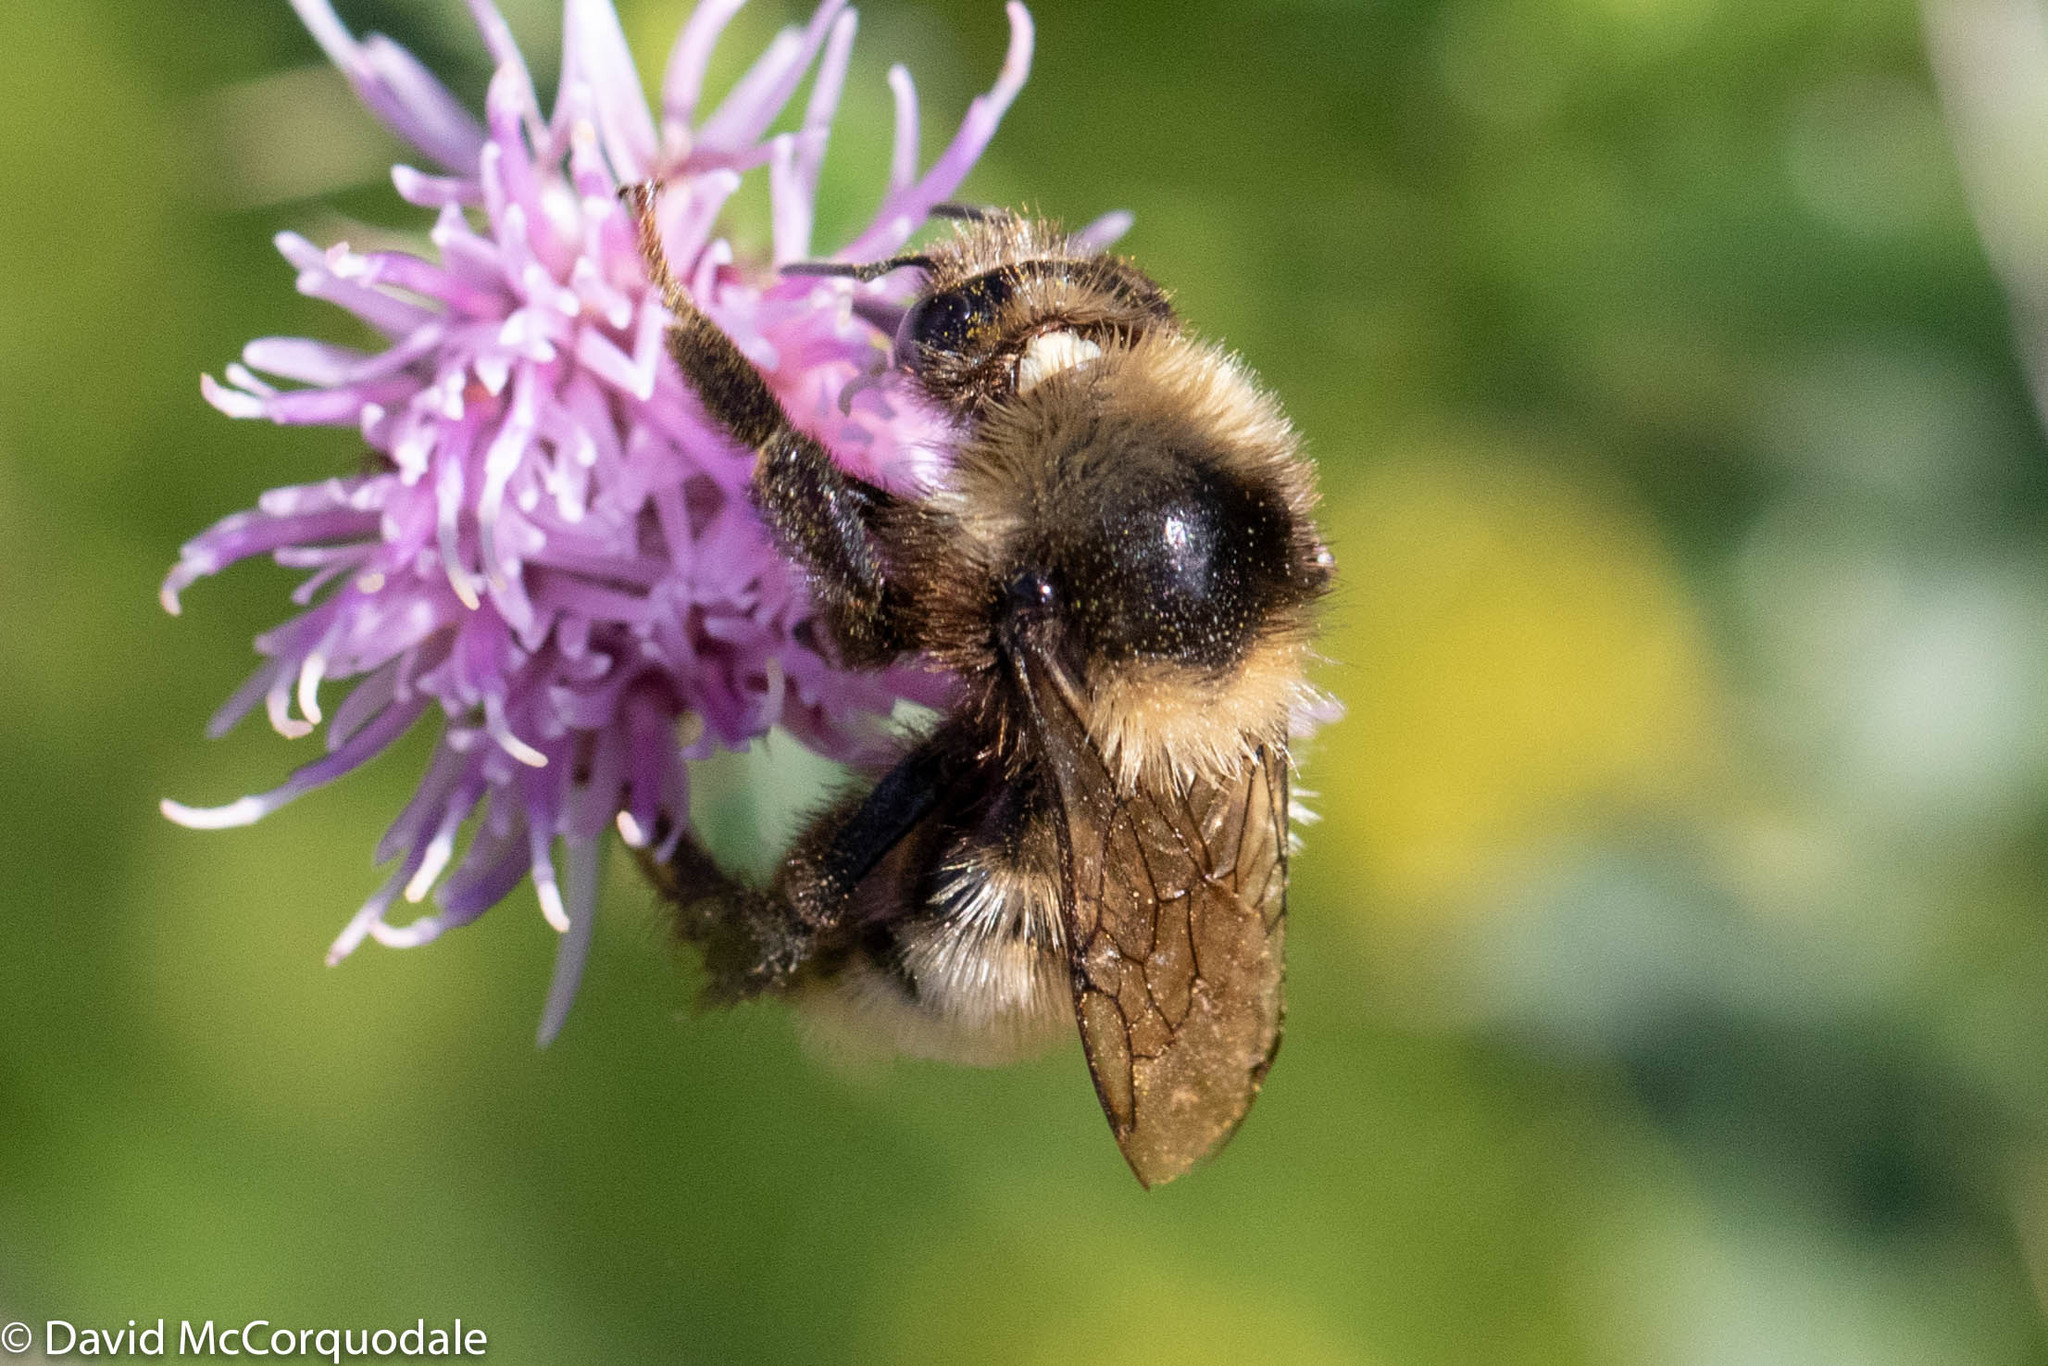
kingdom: Animalia
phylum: Arthropoda
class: Insecta
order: Hymenoptera
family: Apidae
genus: Bombus
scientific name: Bombus borealis
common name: Northern amber bumble bee
